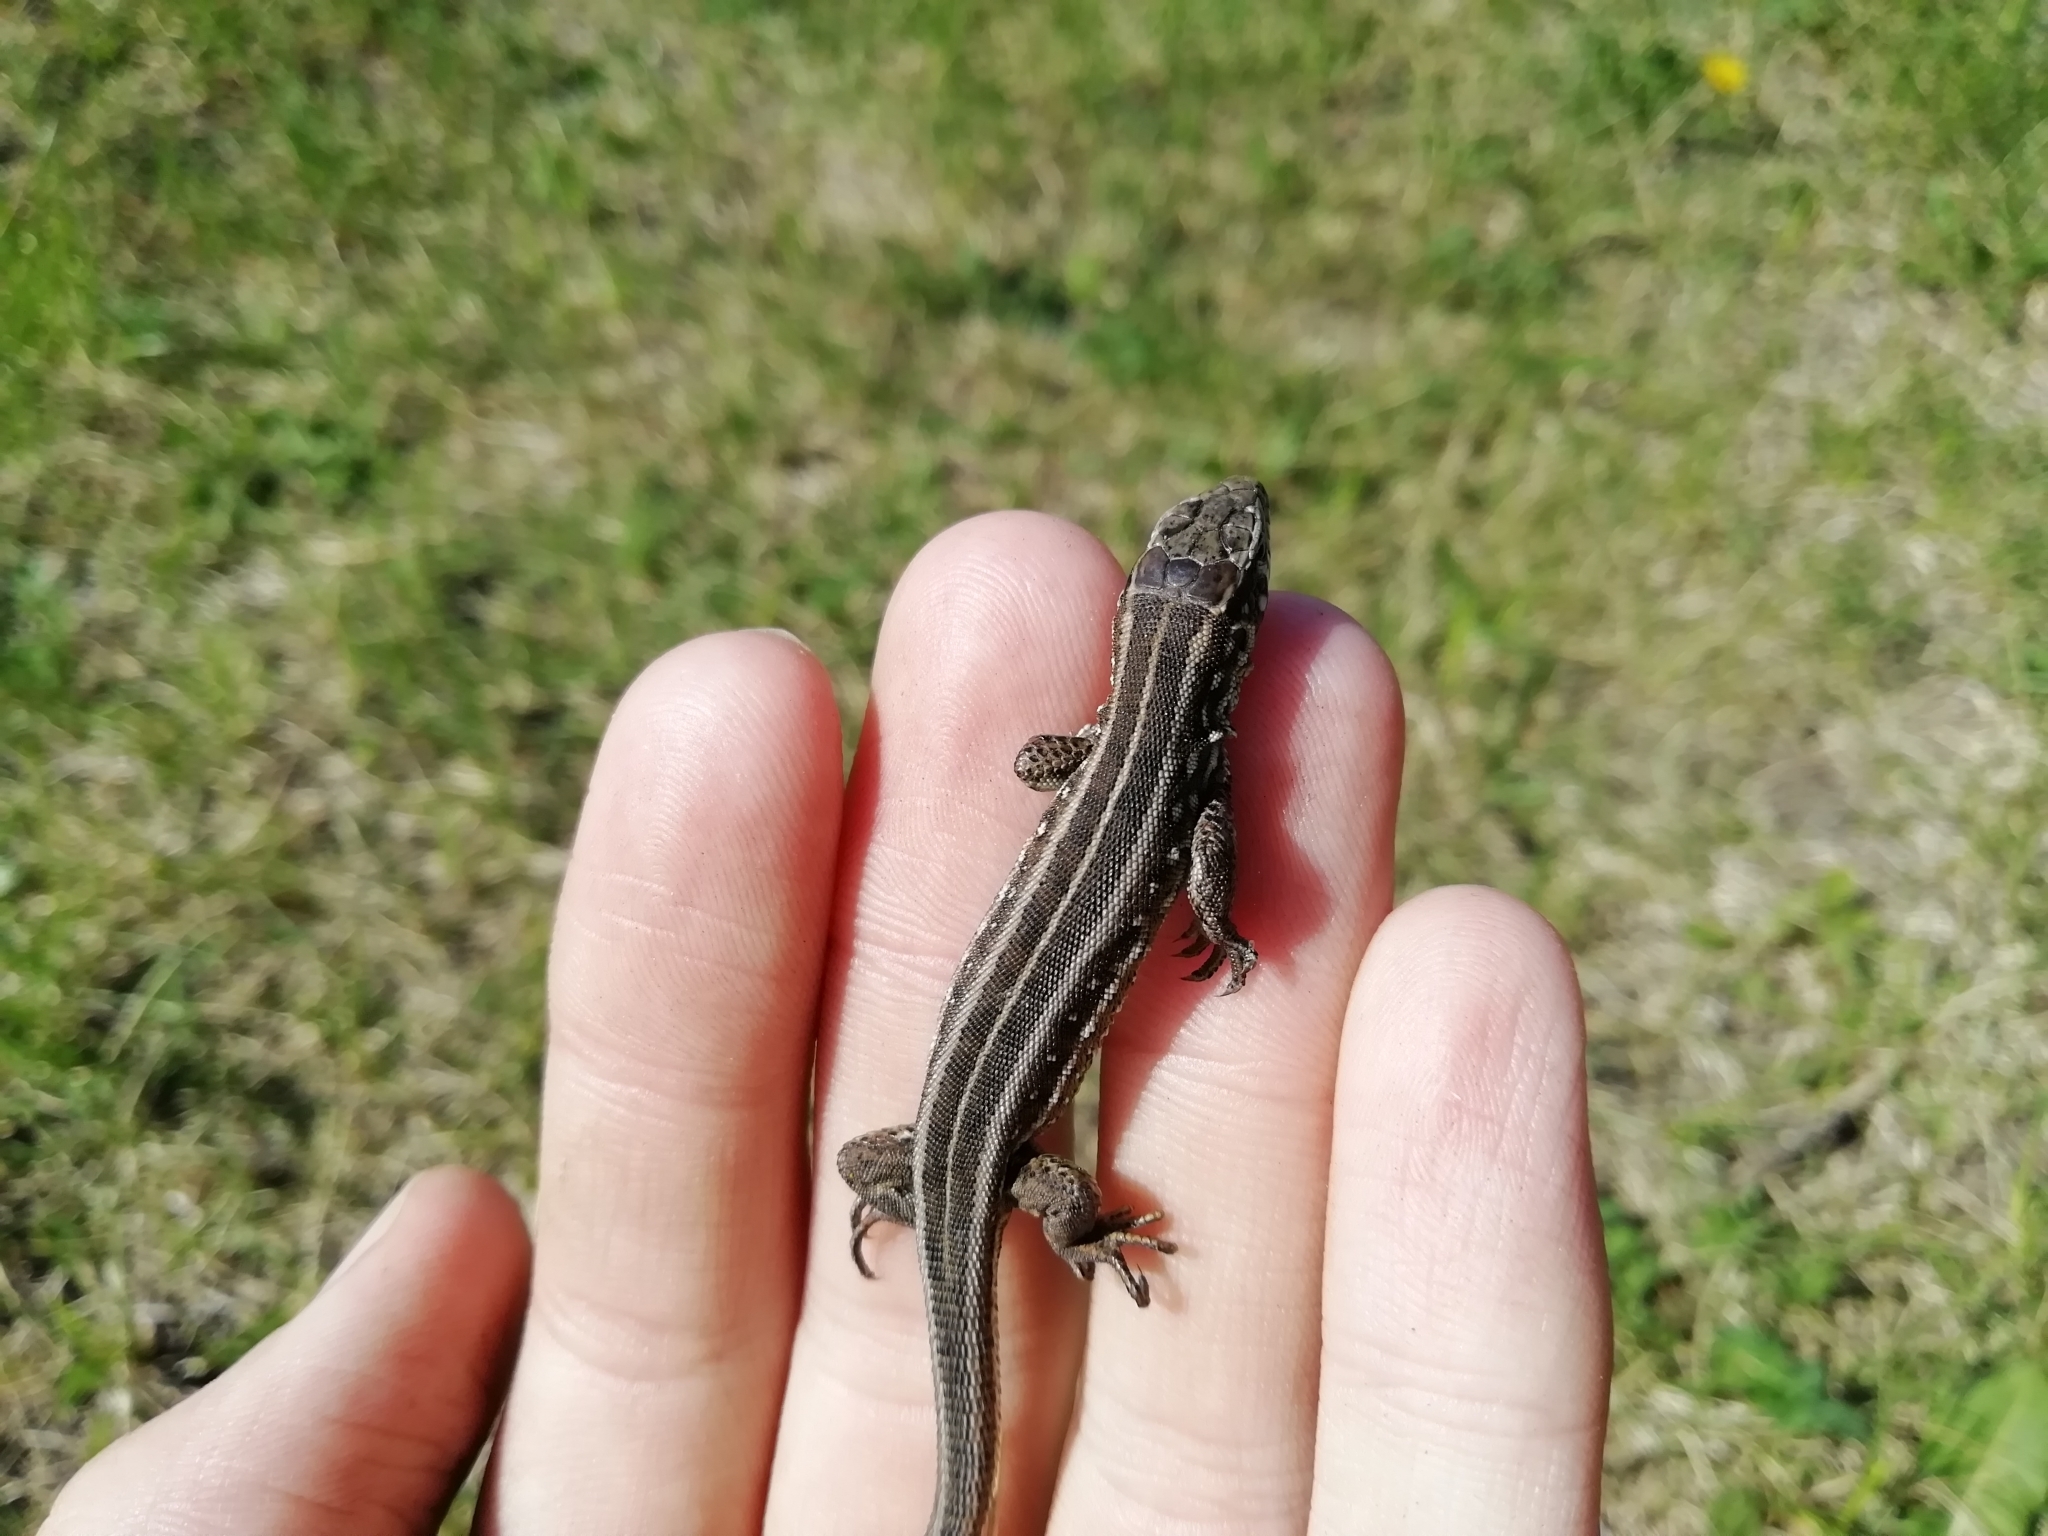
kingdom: Animalia
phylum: Chordata
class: Squamata
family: Lacertidae
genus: Lacerta
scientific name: Lacerta agilis
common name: Sand lizard
